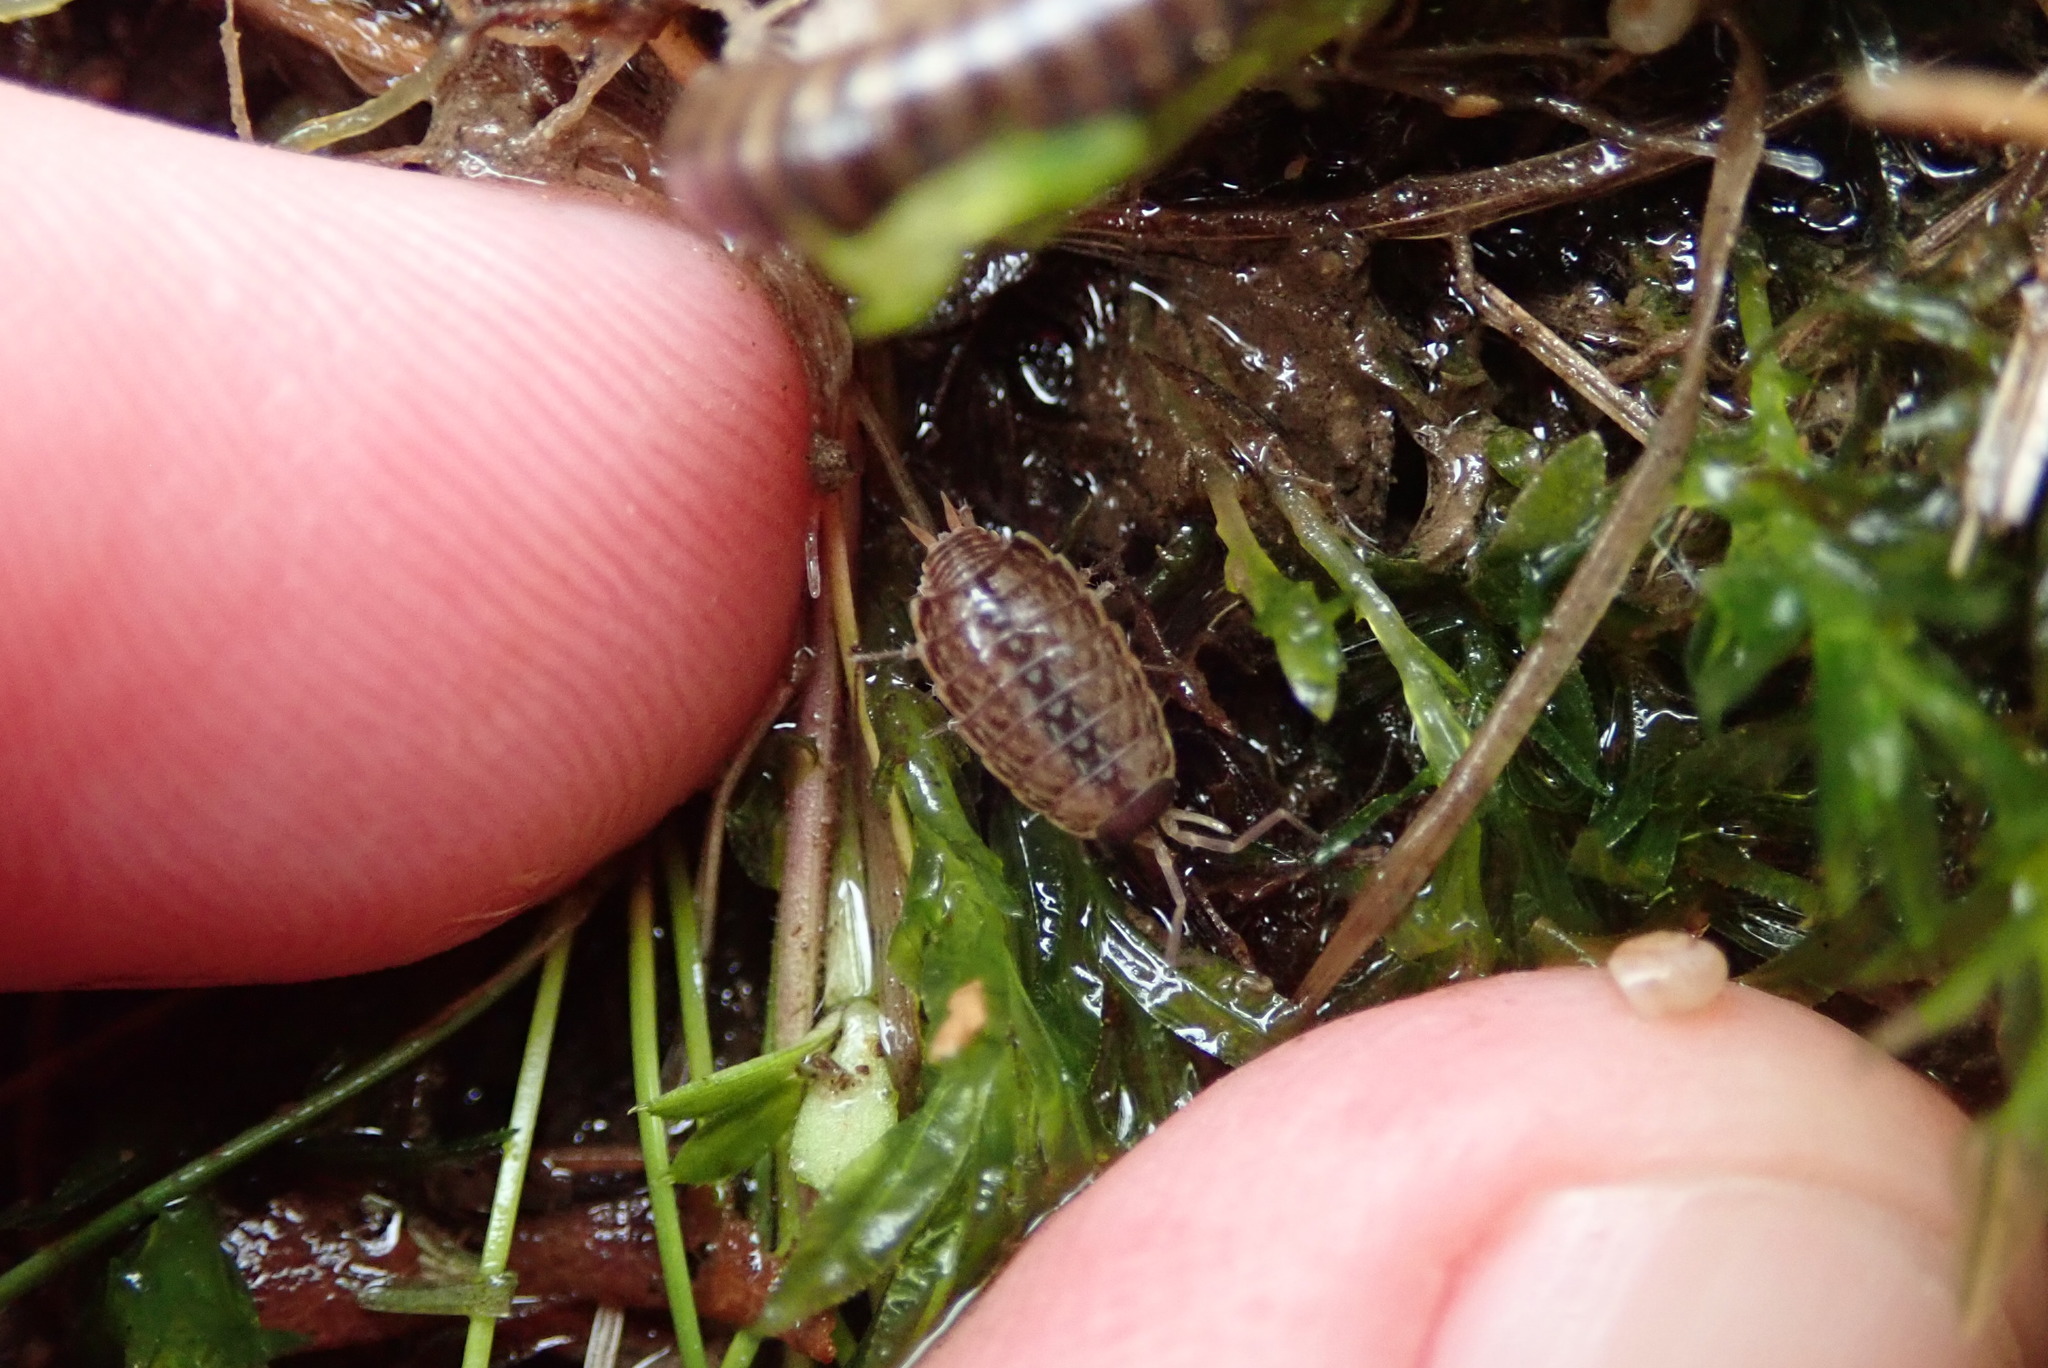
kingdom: Animalia
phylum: Arthropoda
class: Malacostraca
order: Isopoda
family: Philosciidae
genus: Philoscia
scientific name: Philoscia muscorum
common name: Common striped woodlouse
